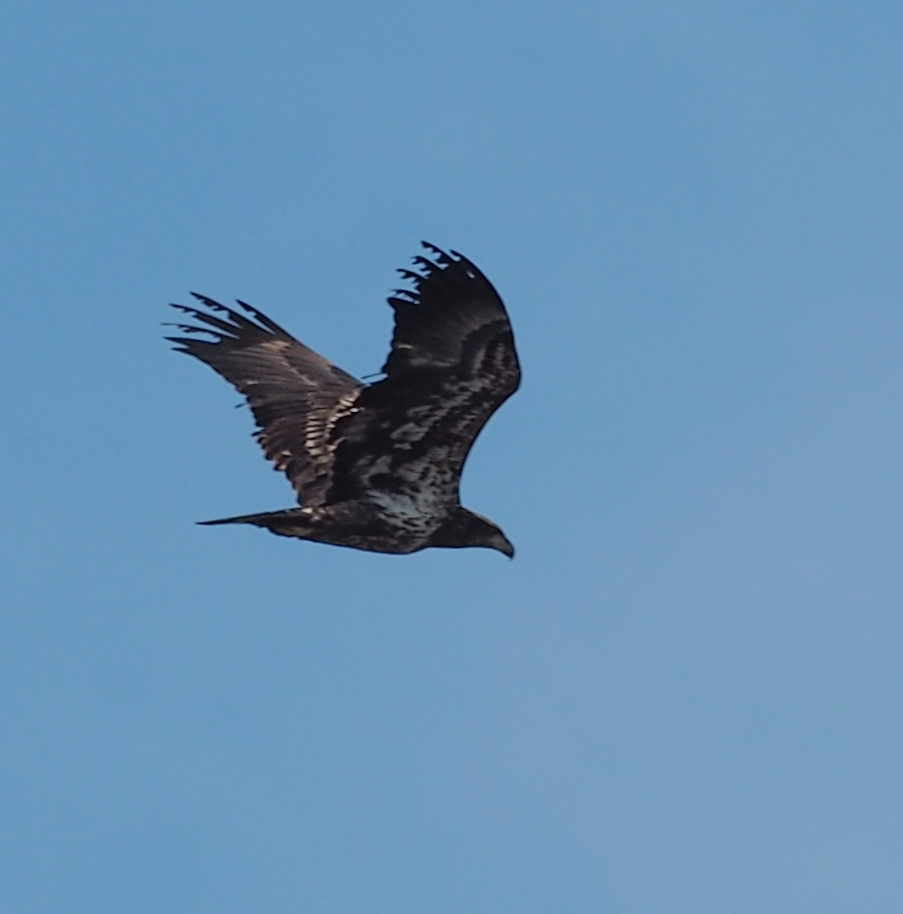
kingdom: Animalia
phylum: Chordata
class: Aves
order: Accipitriformes
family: Accipitridae
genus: Haliaeetus
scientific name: Haliaeetus leucocephalus
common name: Bald eagle
